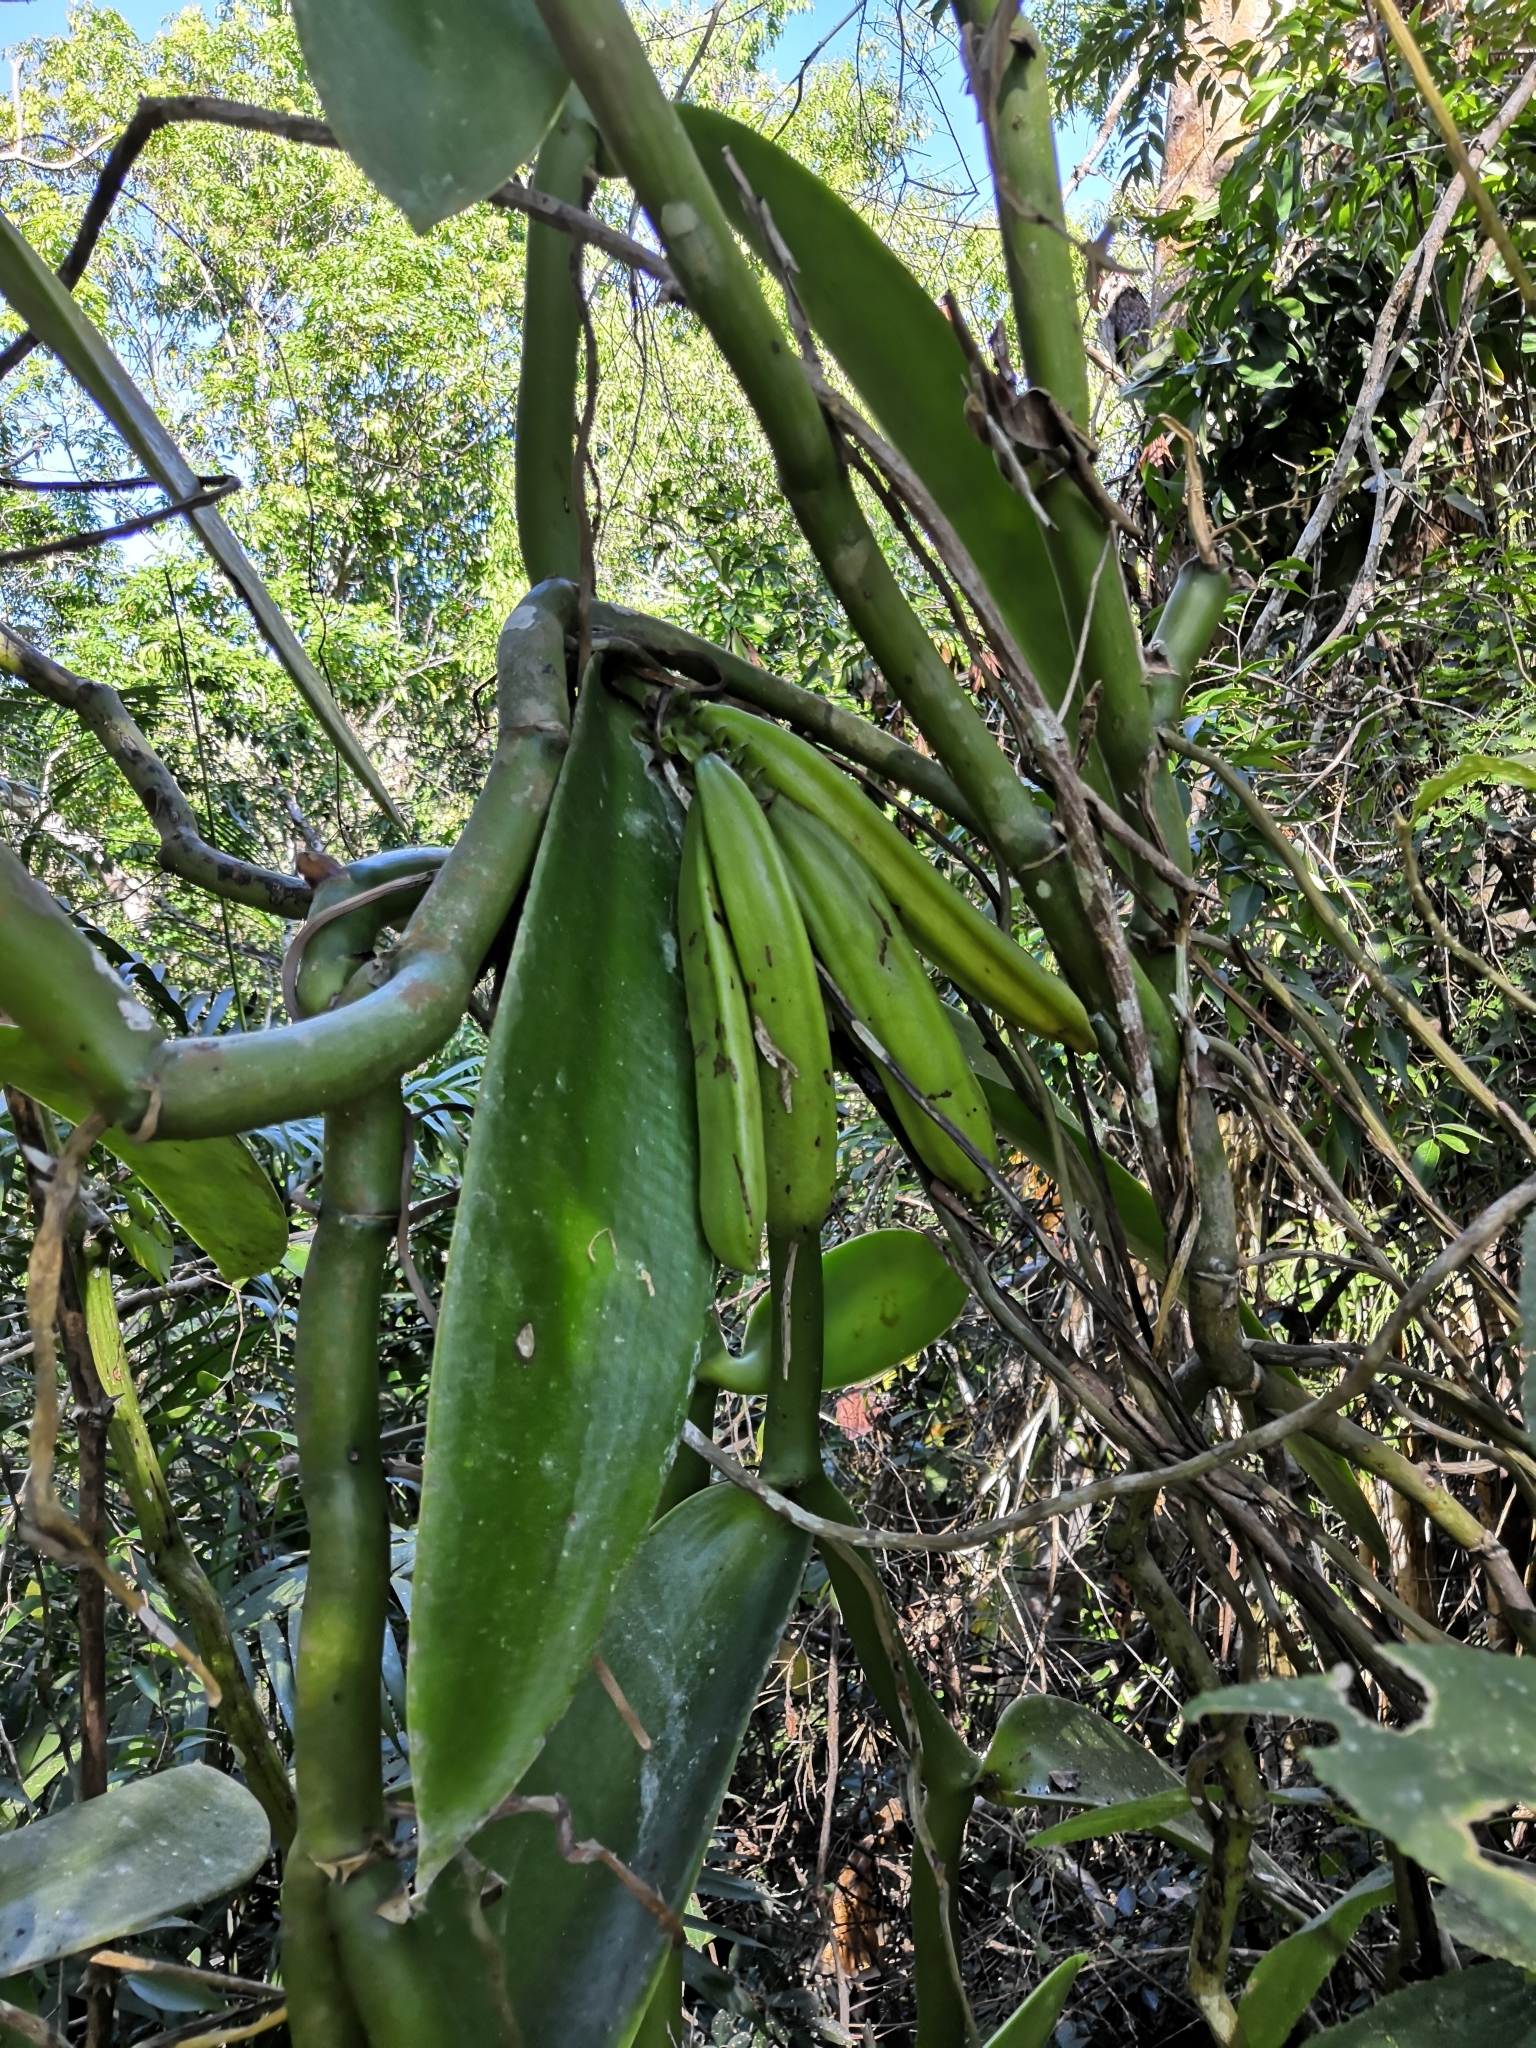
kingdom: Plantae
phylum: Tracheophyta
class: Liliopsida
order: Asparagales
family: Orchidaceae
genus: Vanilla
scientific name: Vanilla pompona
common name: West indian vanilla
